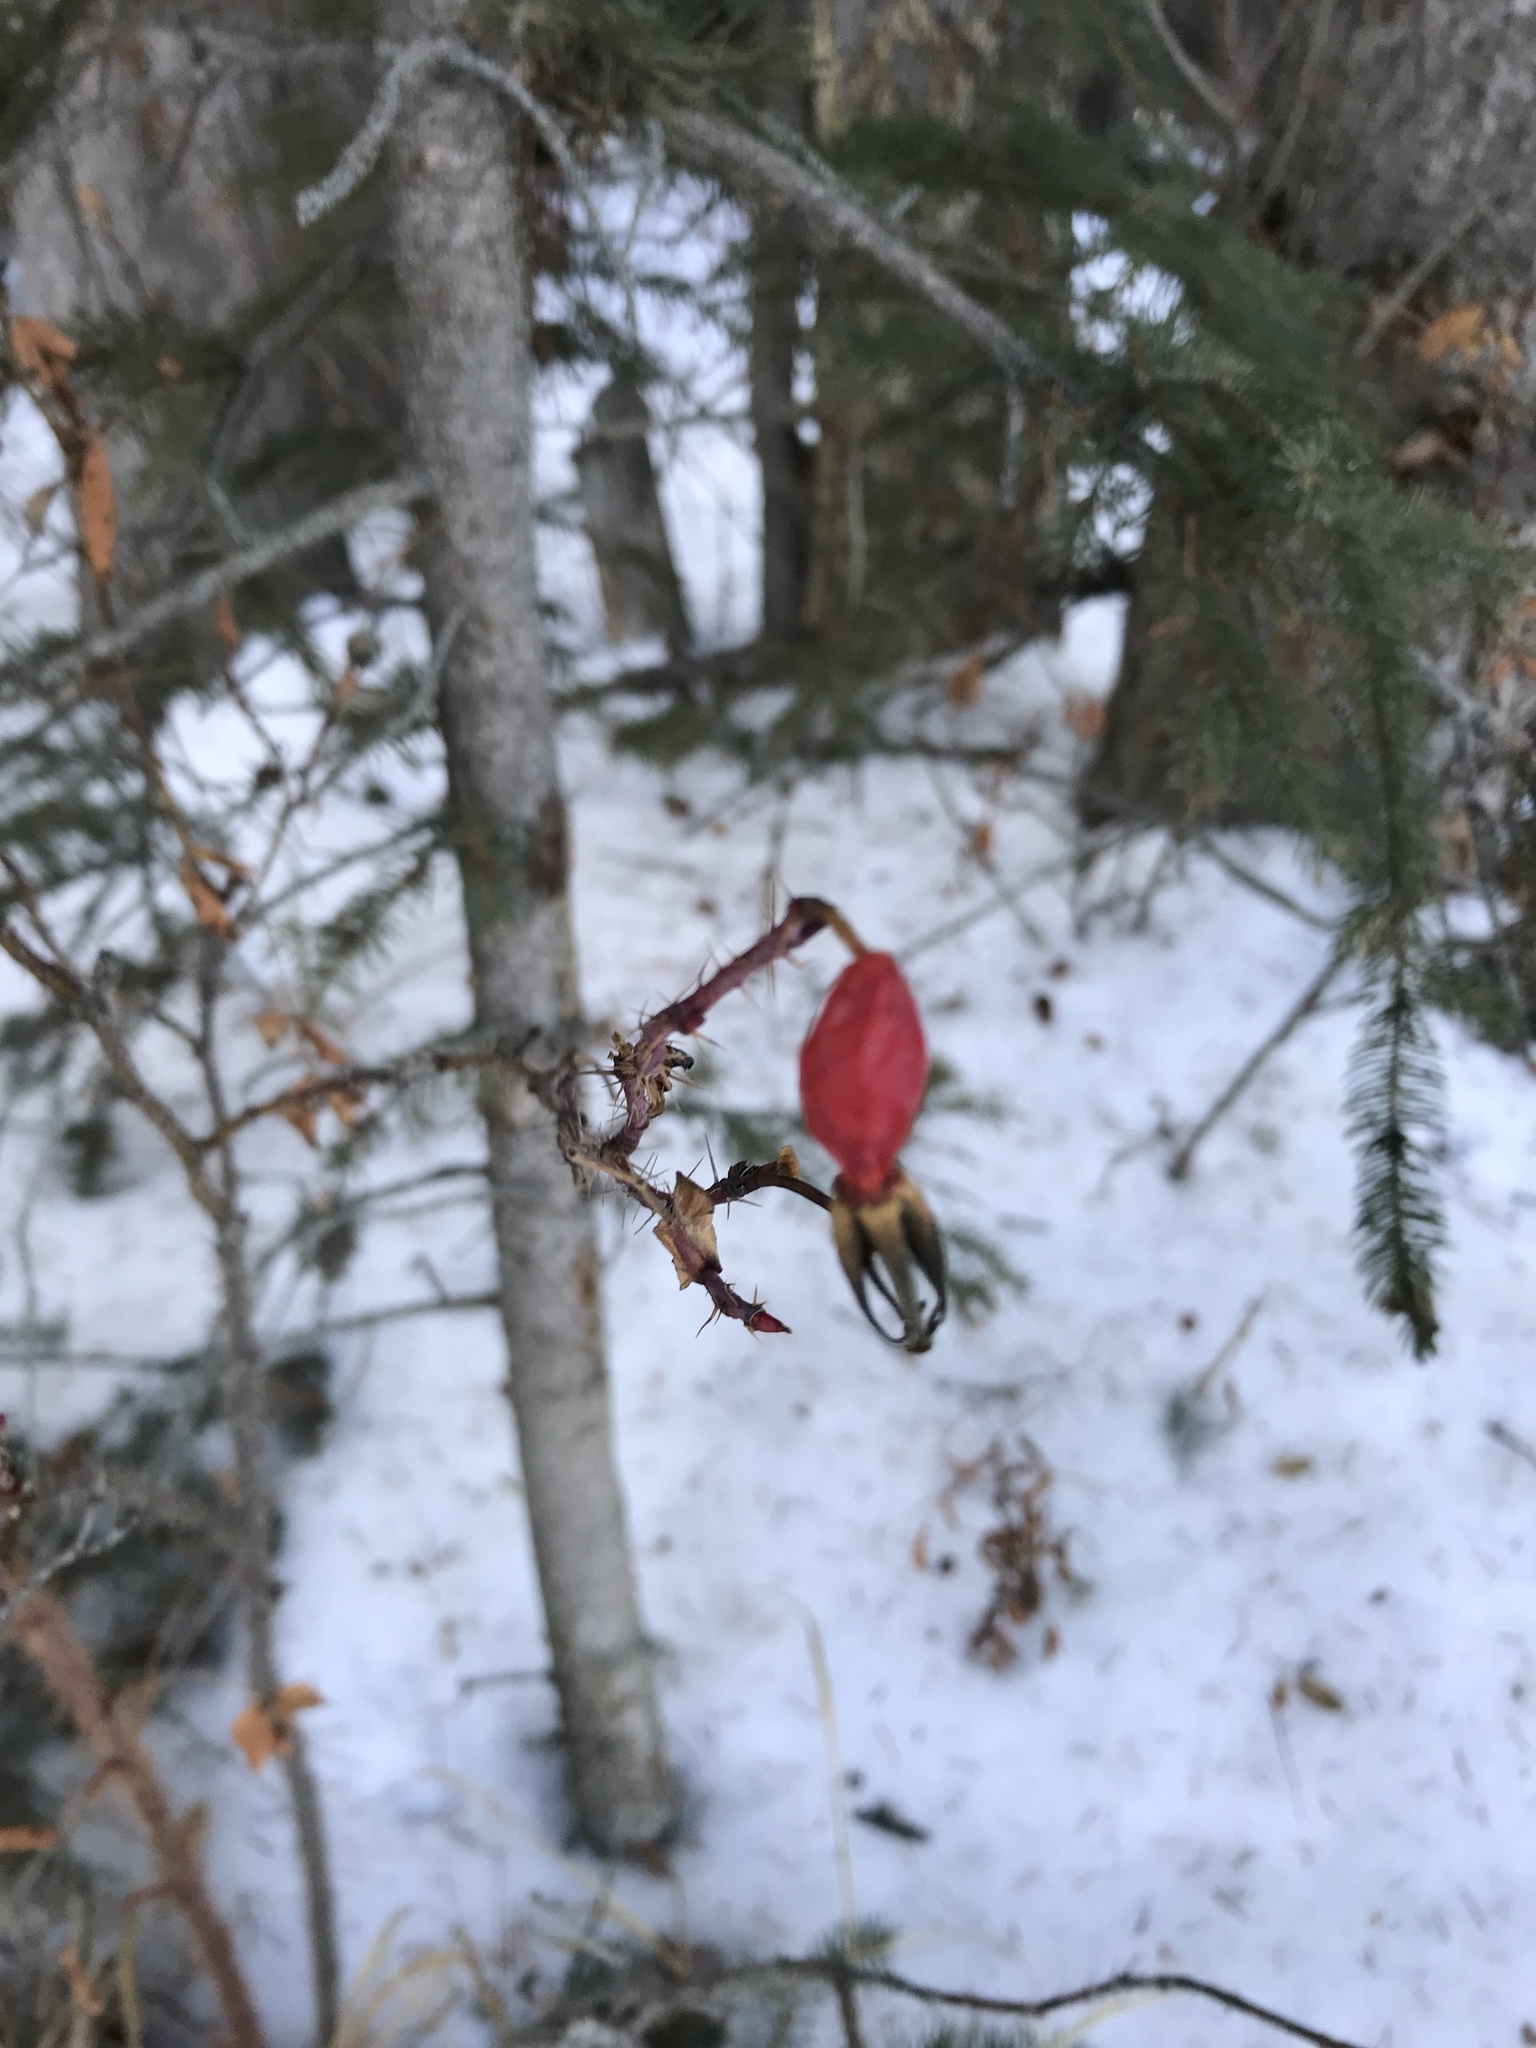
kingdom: Plantae
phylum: Tracheophyta
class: Magnoliopsida
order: Rosales
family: Rosaceae
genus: Rosa
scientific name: Rosa acicularis
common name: Prickly rose
